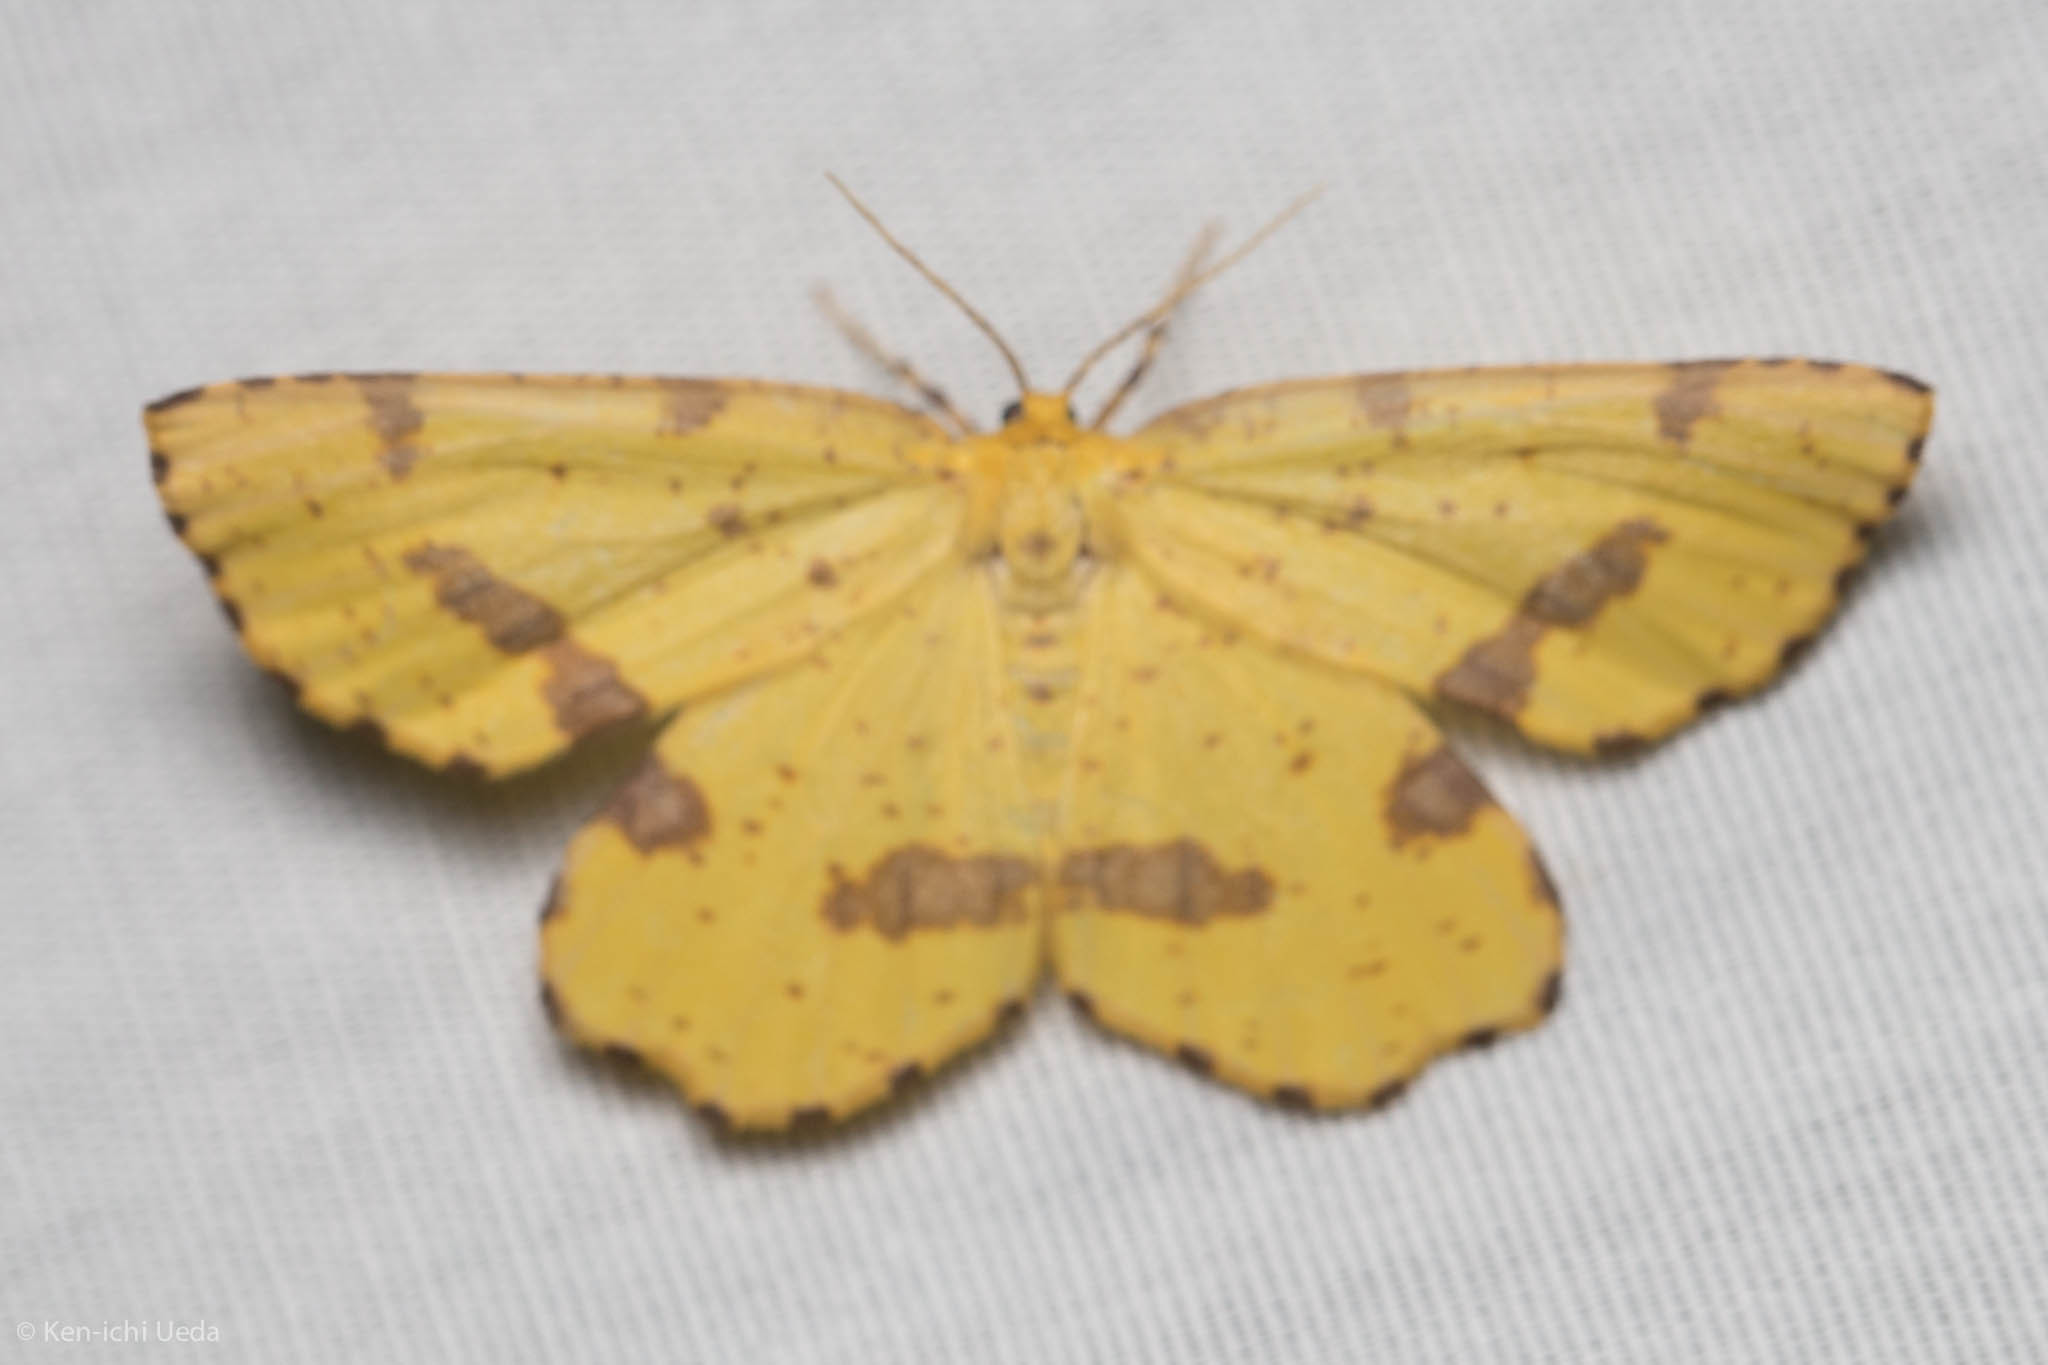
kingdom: Animalia
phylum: Arthropoda
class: Insecta
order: Lepidoptera
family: Geometridae
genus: Xanthotype
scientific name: Xanthotype
